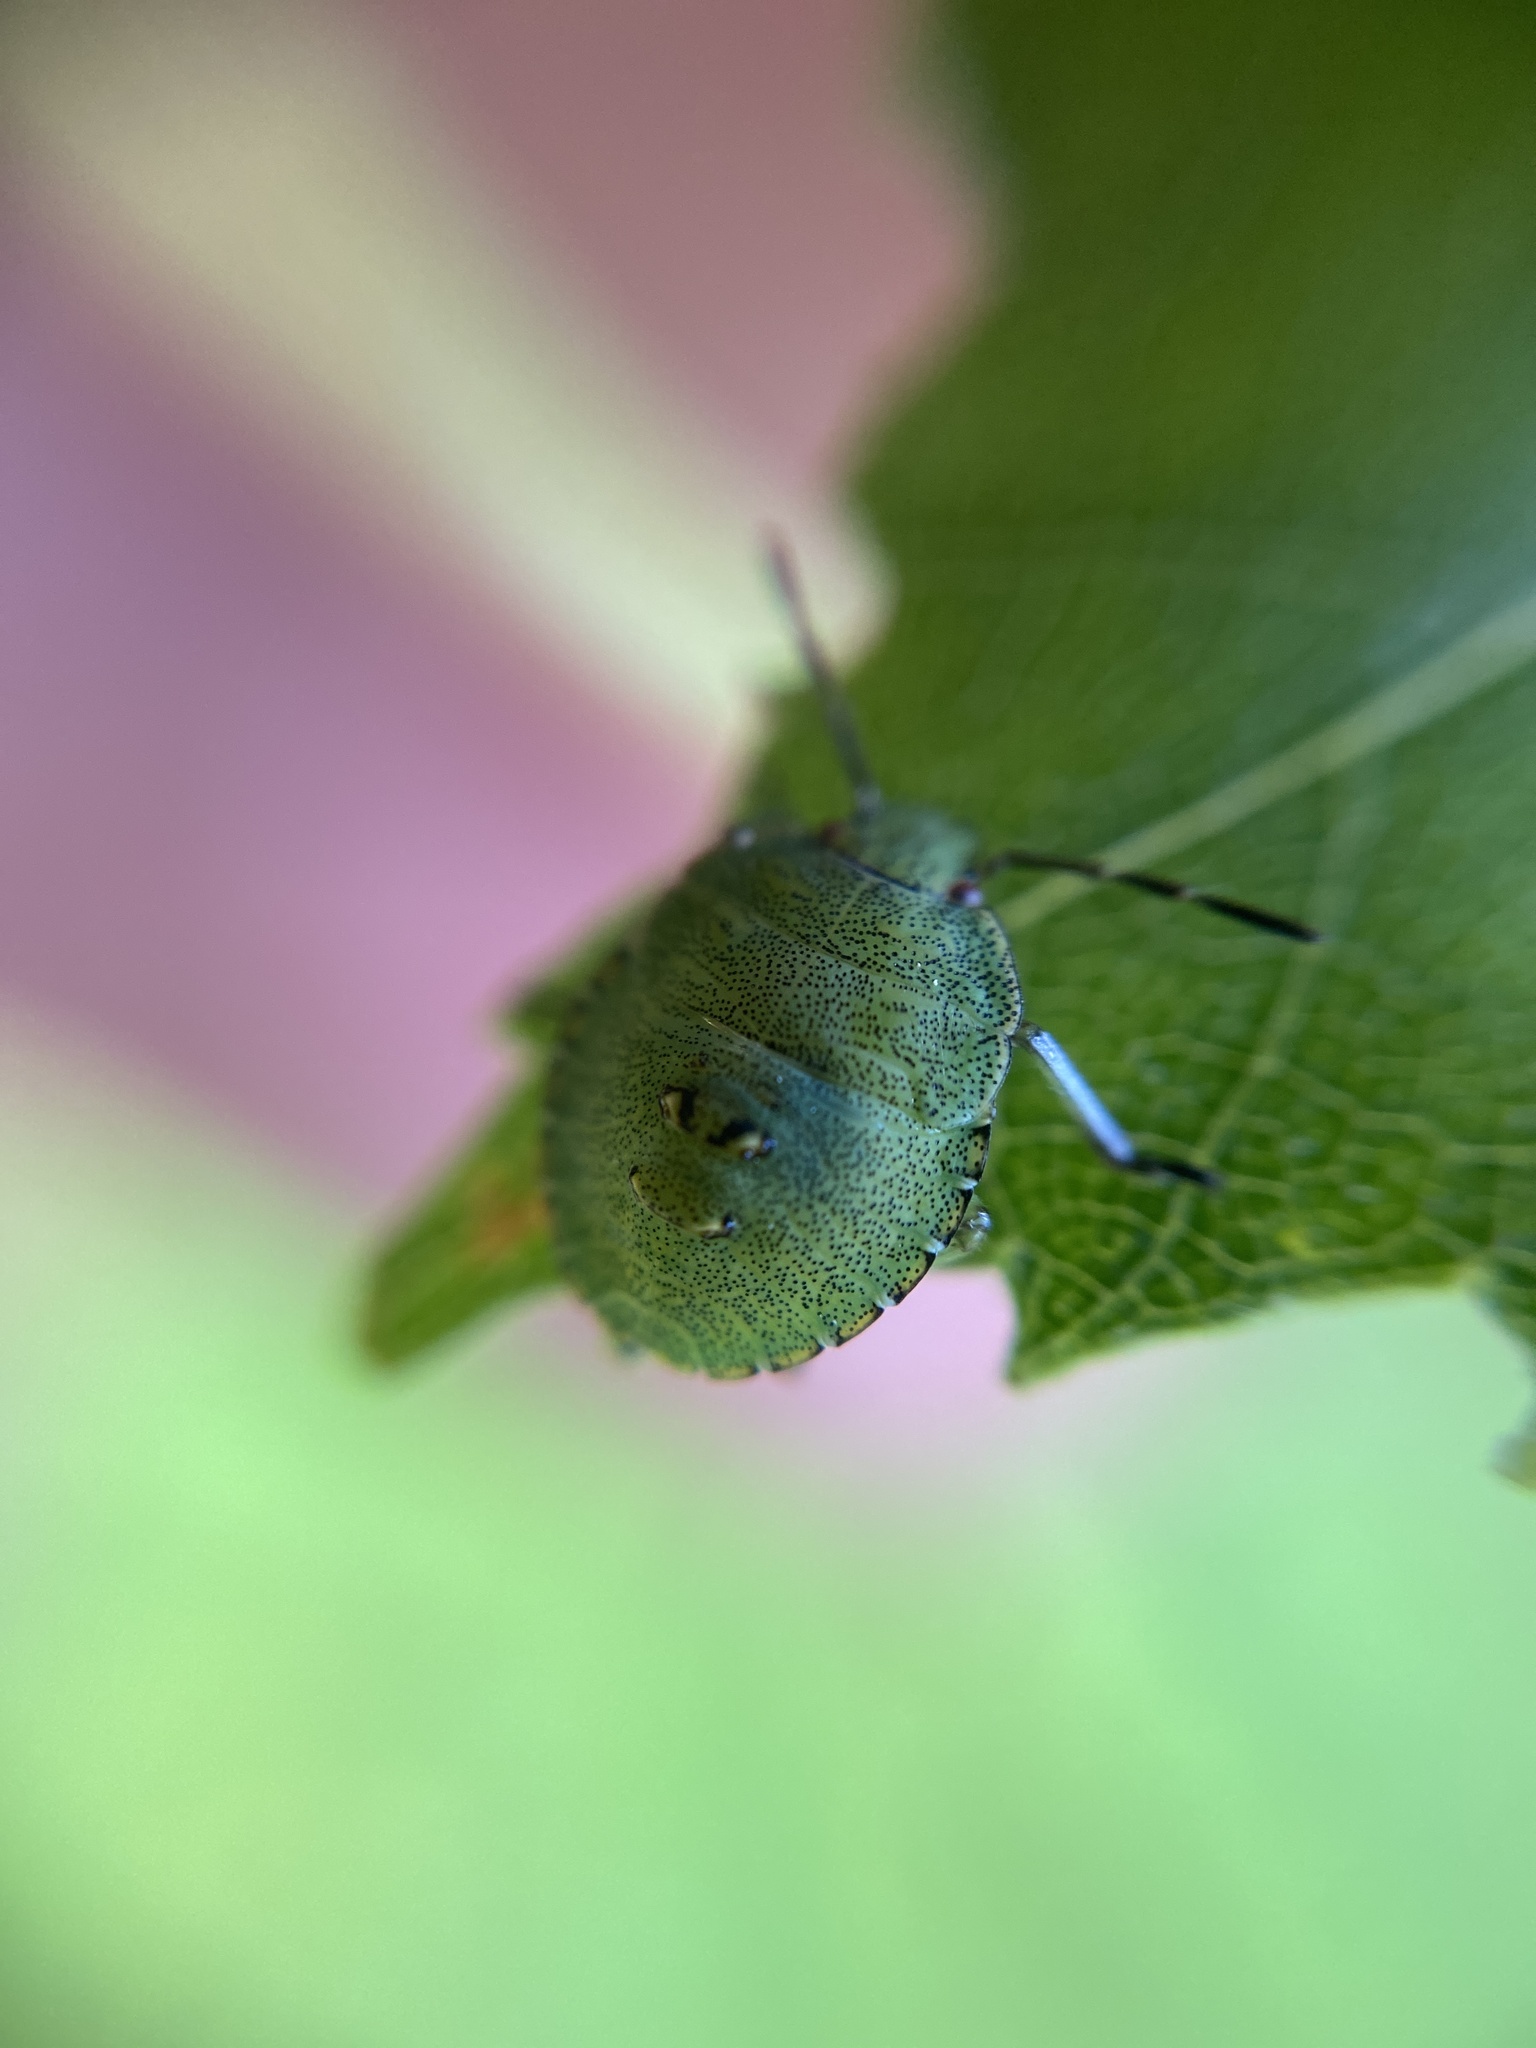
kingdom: Animalia
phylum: Arthropoda
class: Insecta
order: Hemiptera
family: Pentatomidae
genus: Palomena
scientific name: Palomena prasina
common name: Green shieldbug
